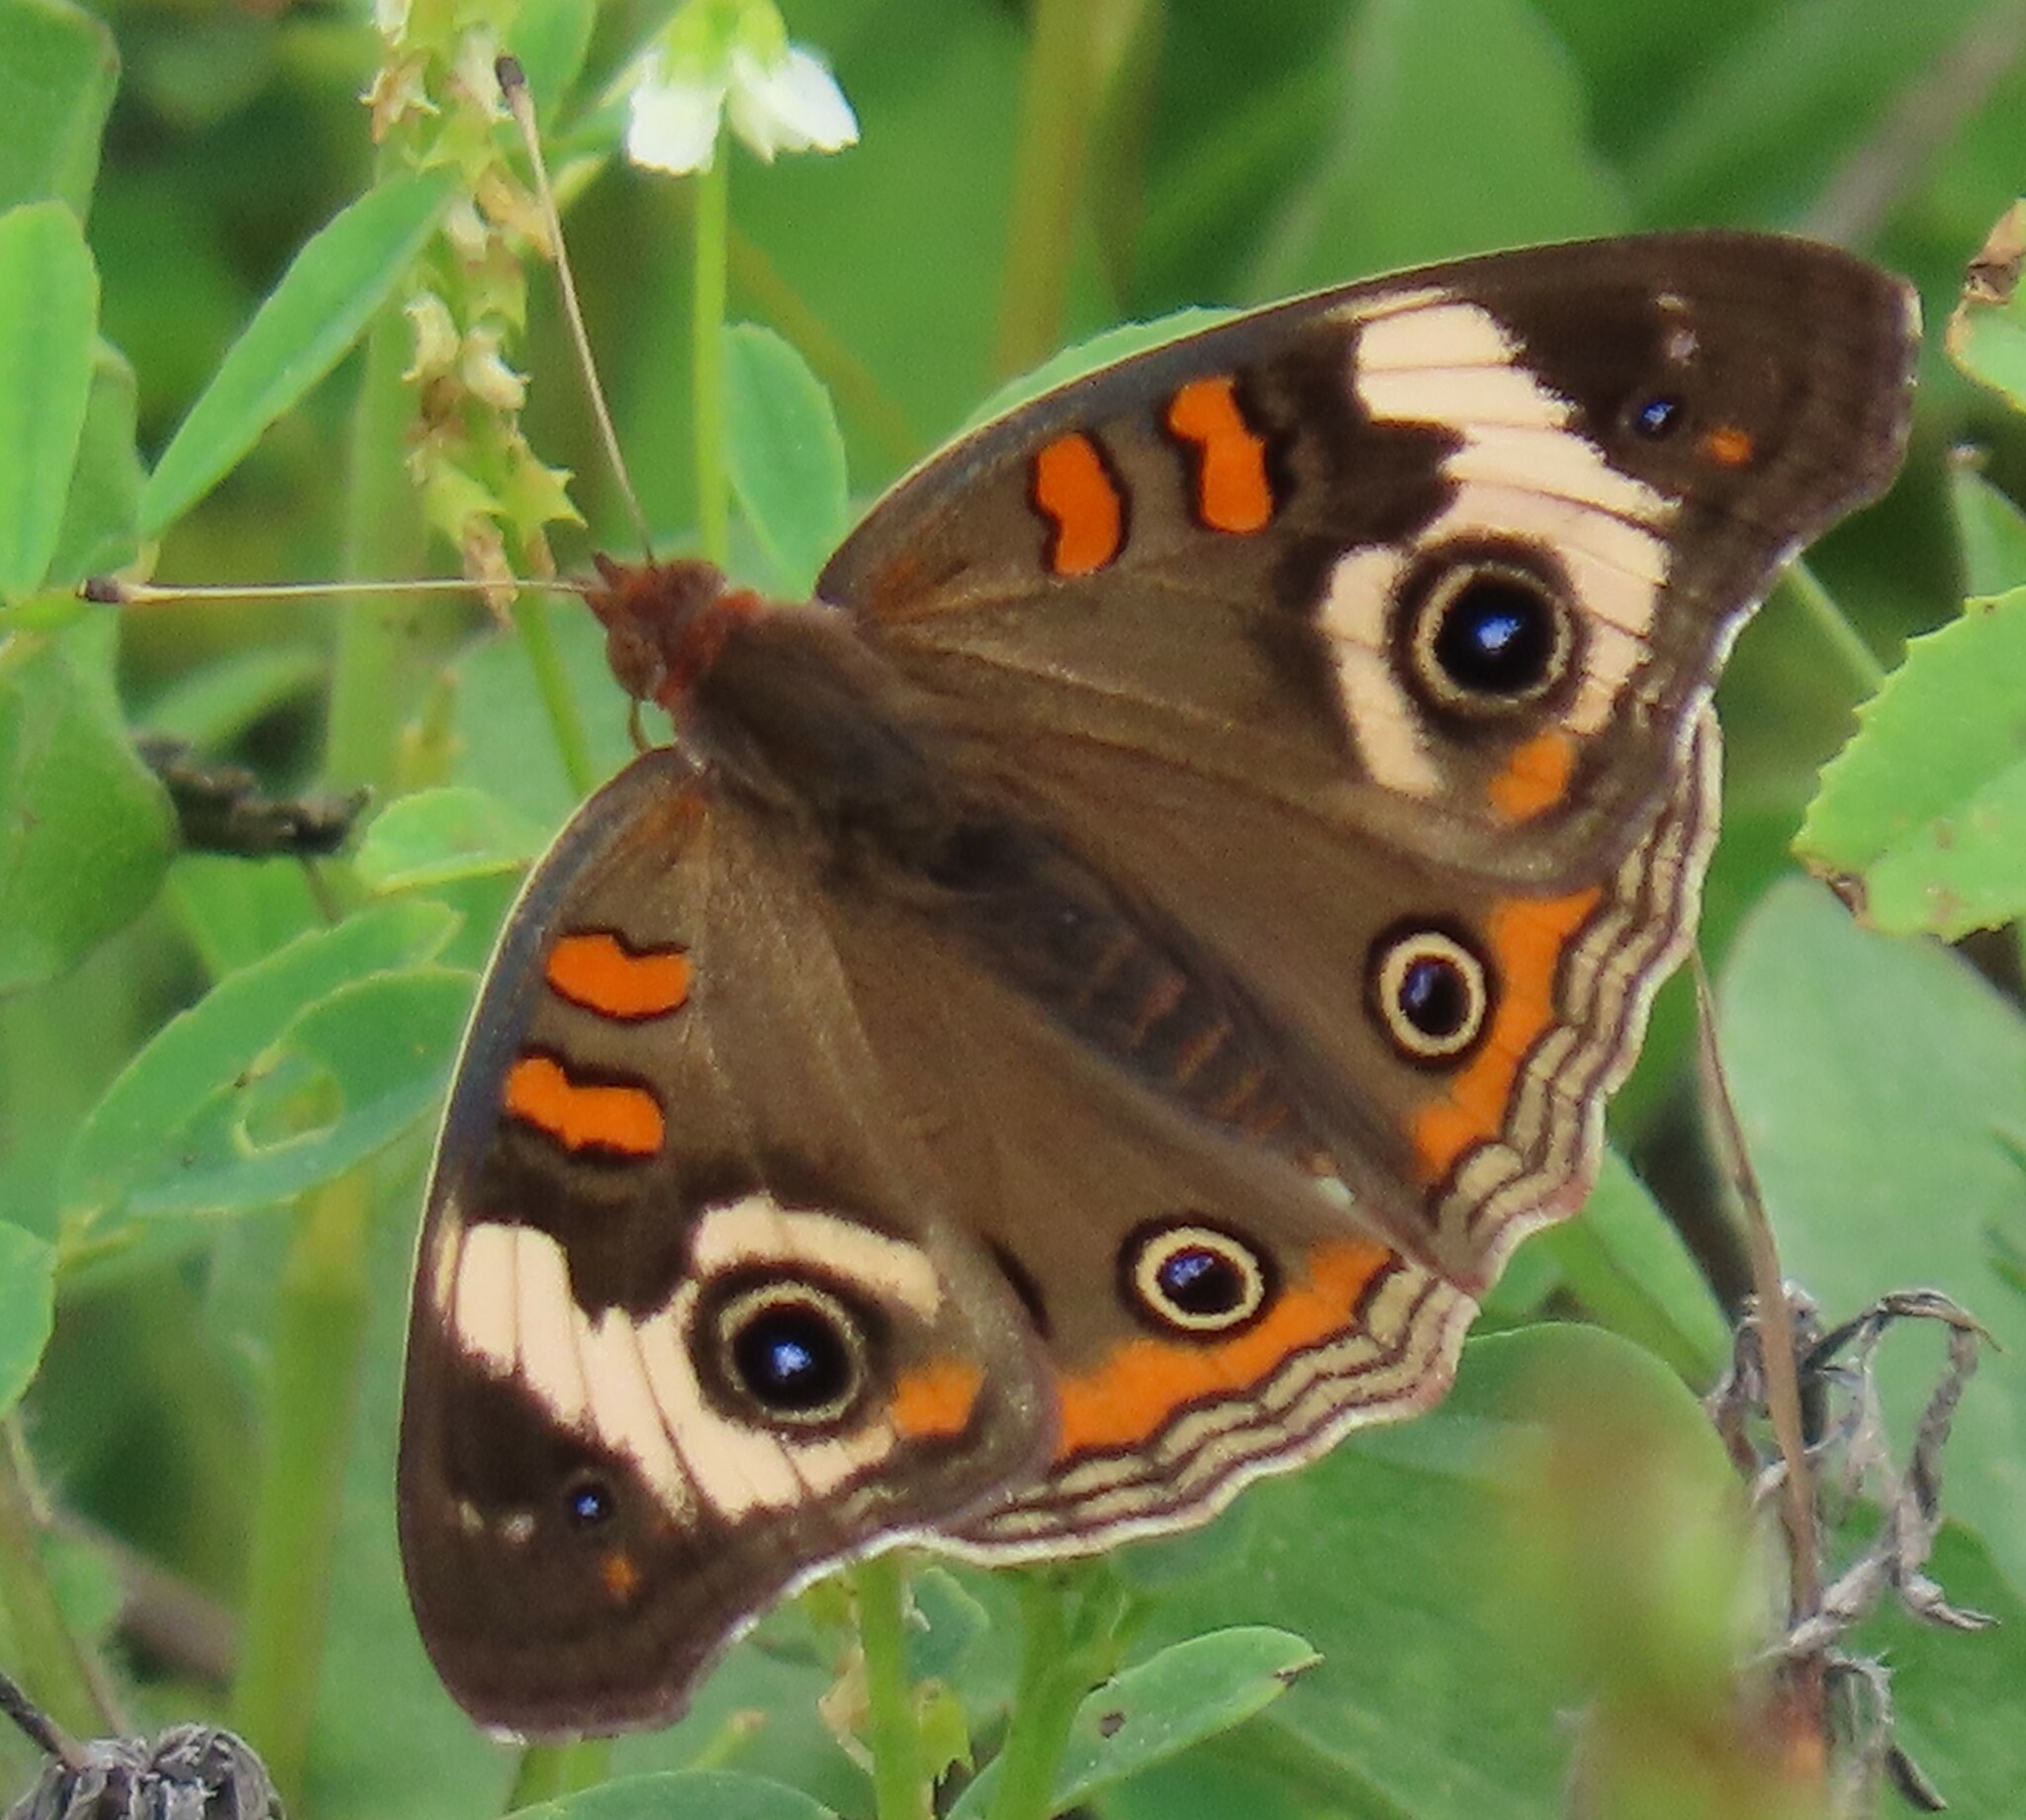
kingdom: Animalia
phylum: Arthropoda
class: Insecta
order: Lepidoptera
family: Nymphalidae
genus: Junonia
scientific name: Junonia coenia
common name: Common buckeye
